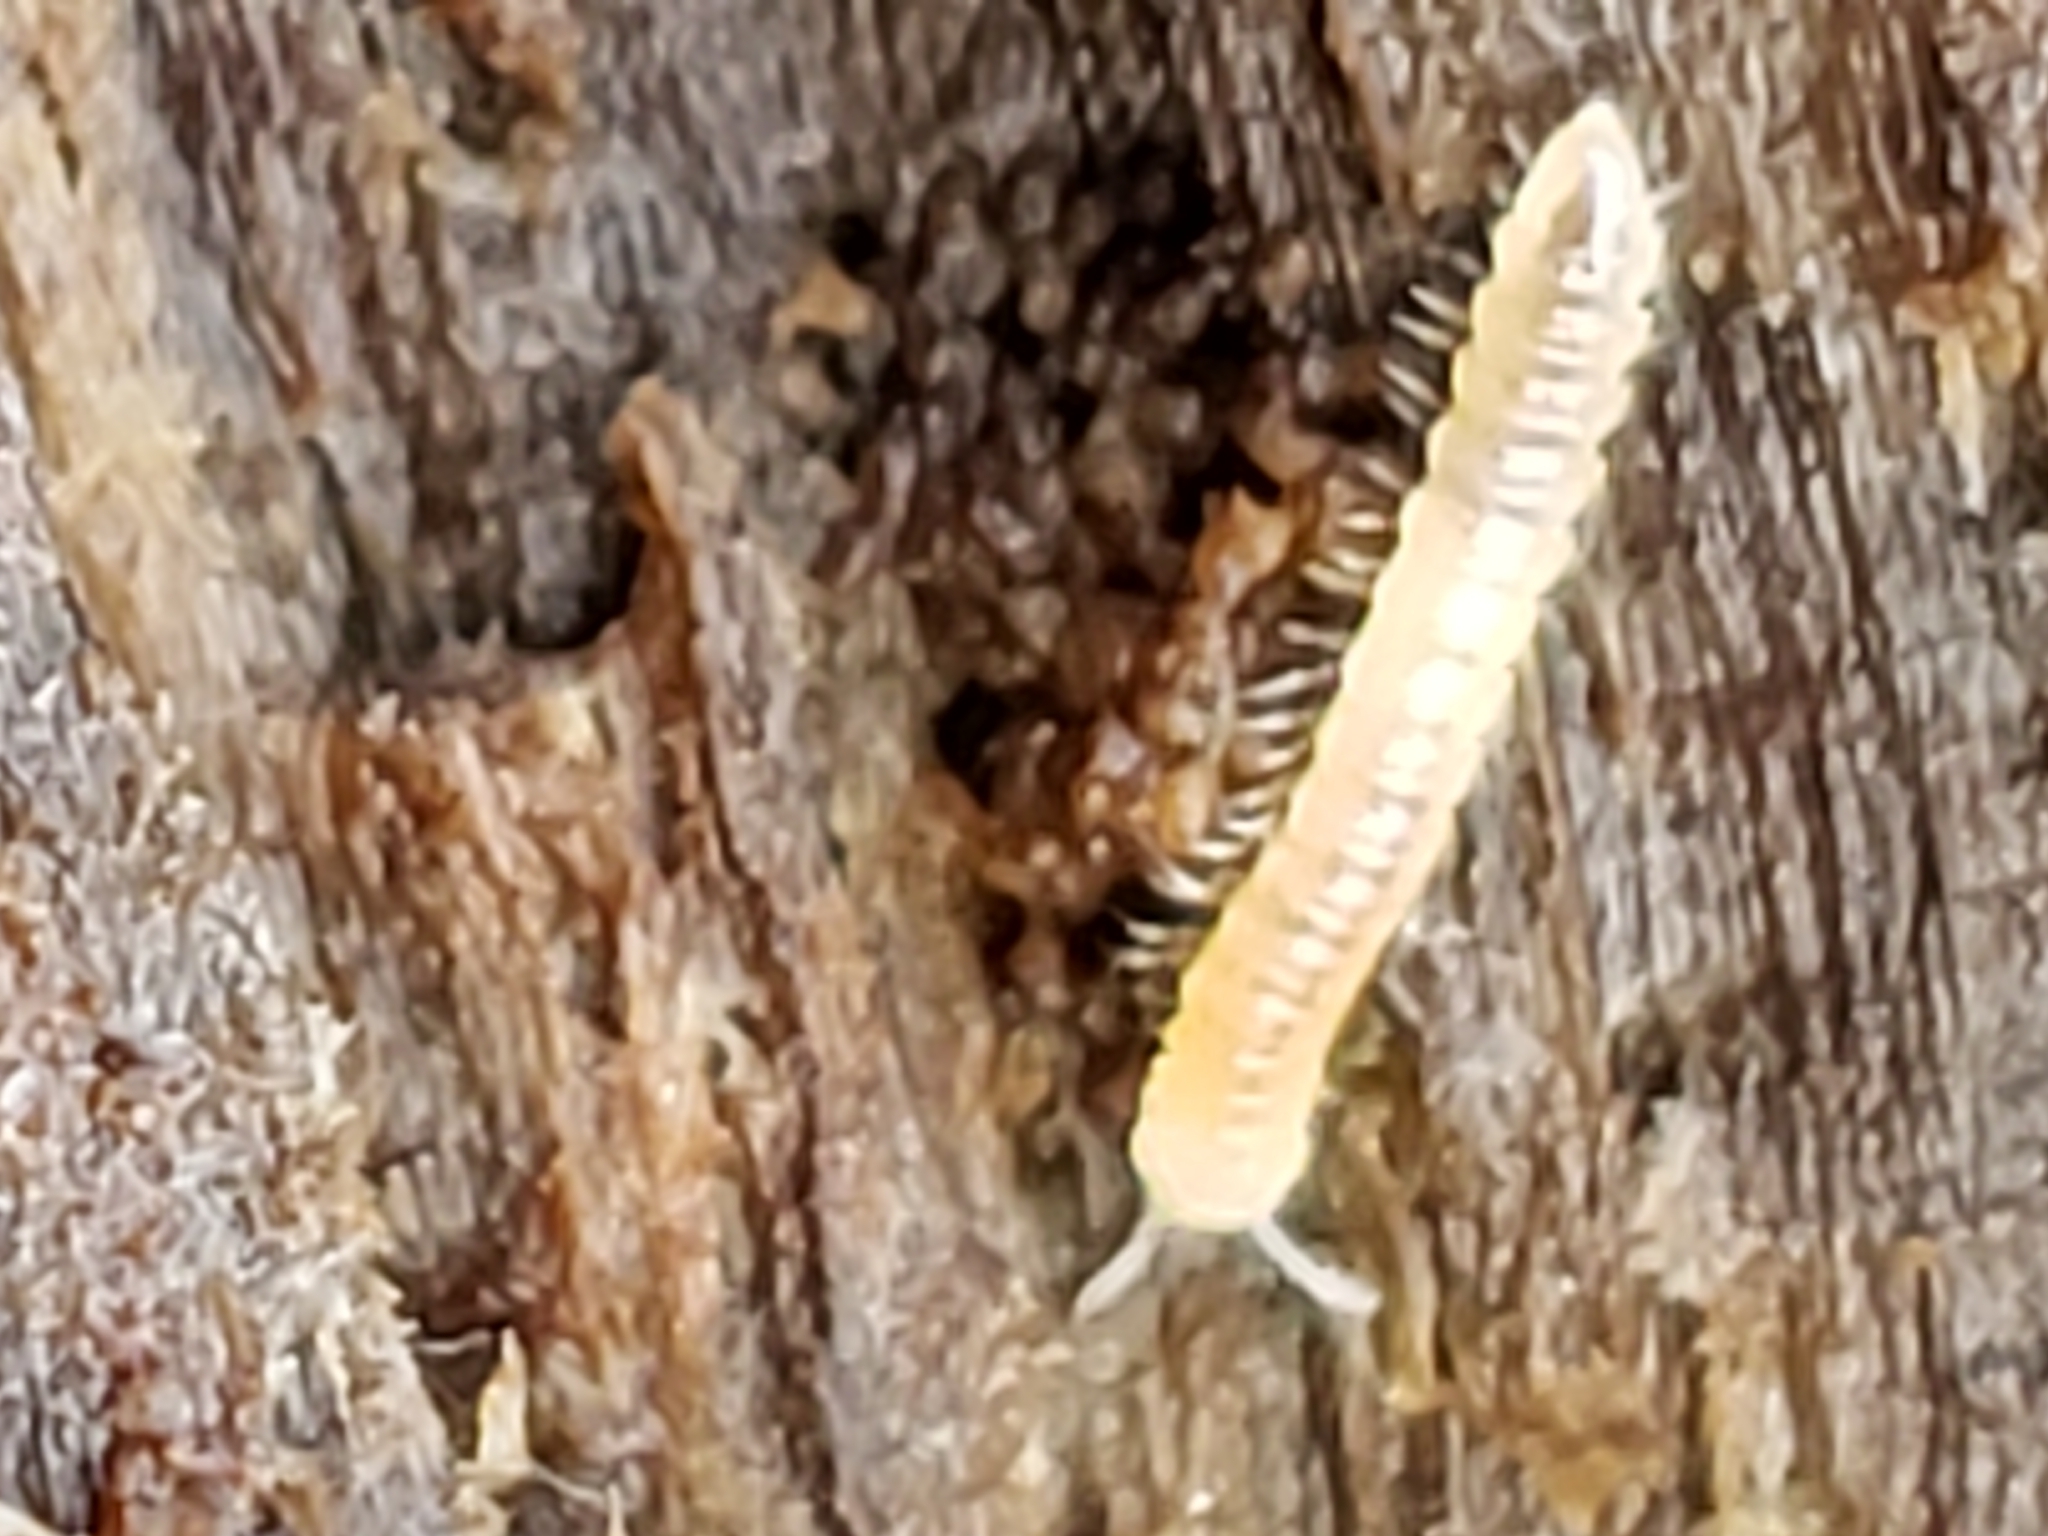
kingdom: Animalia
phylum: Arthropoda
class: Diplopoda
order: Polydesmida
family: Paradoxosomatidae
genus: Oxidus
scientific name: Oxidus gracilis
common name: Greenhouse millipede
